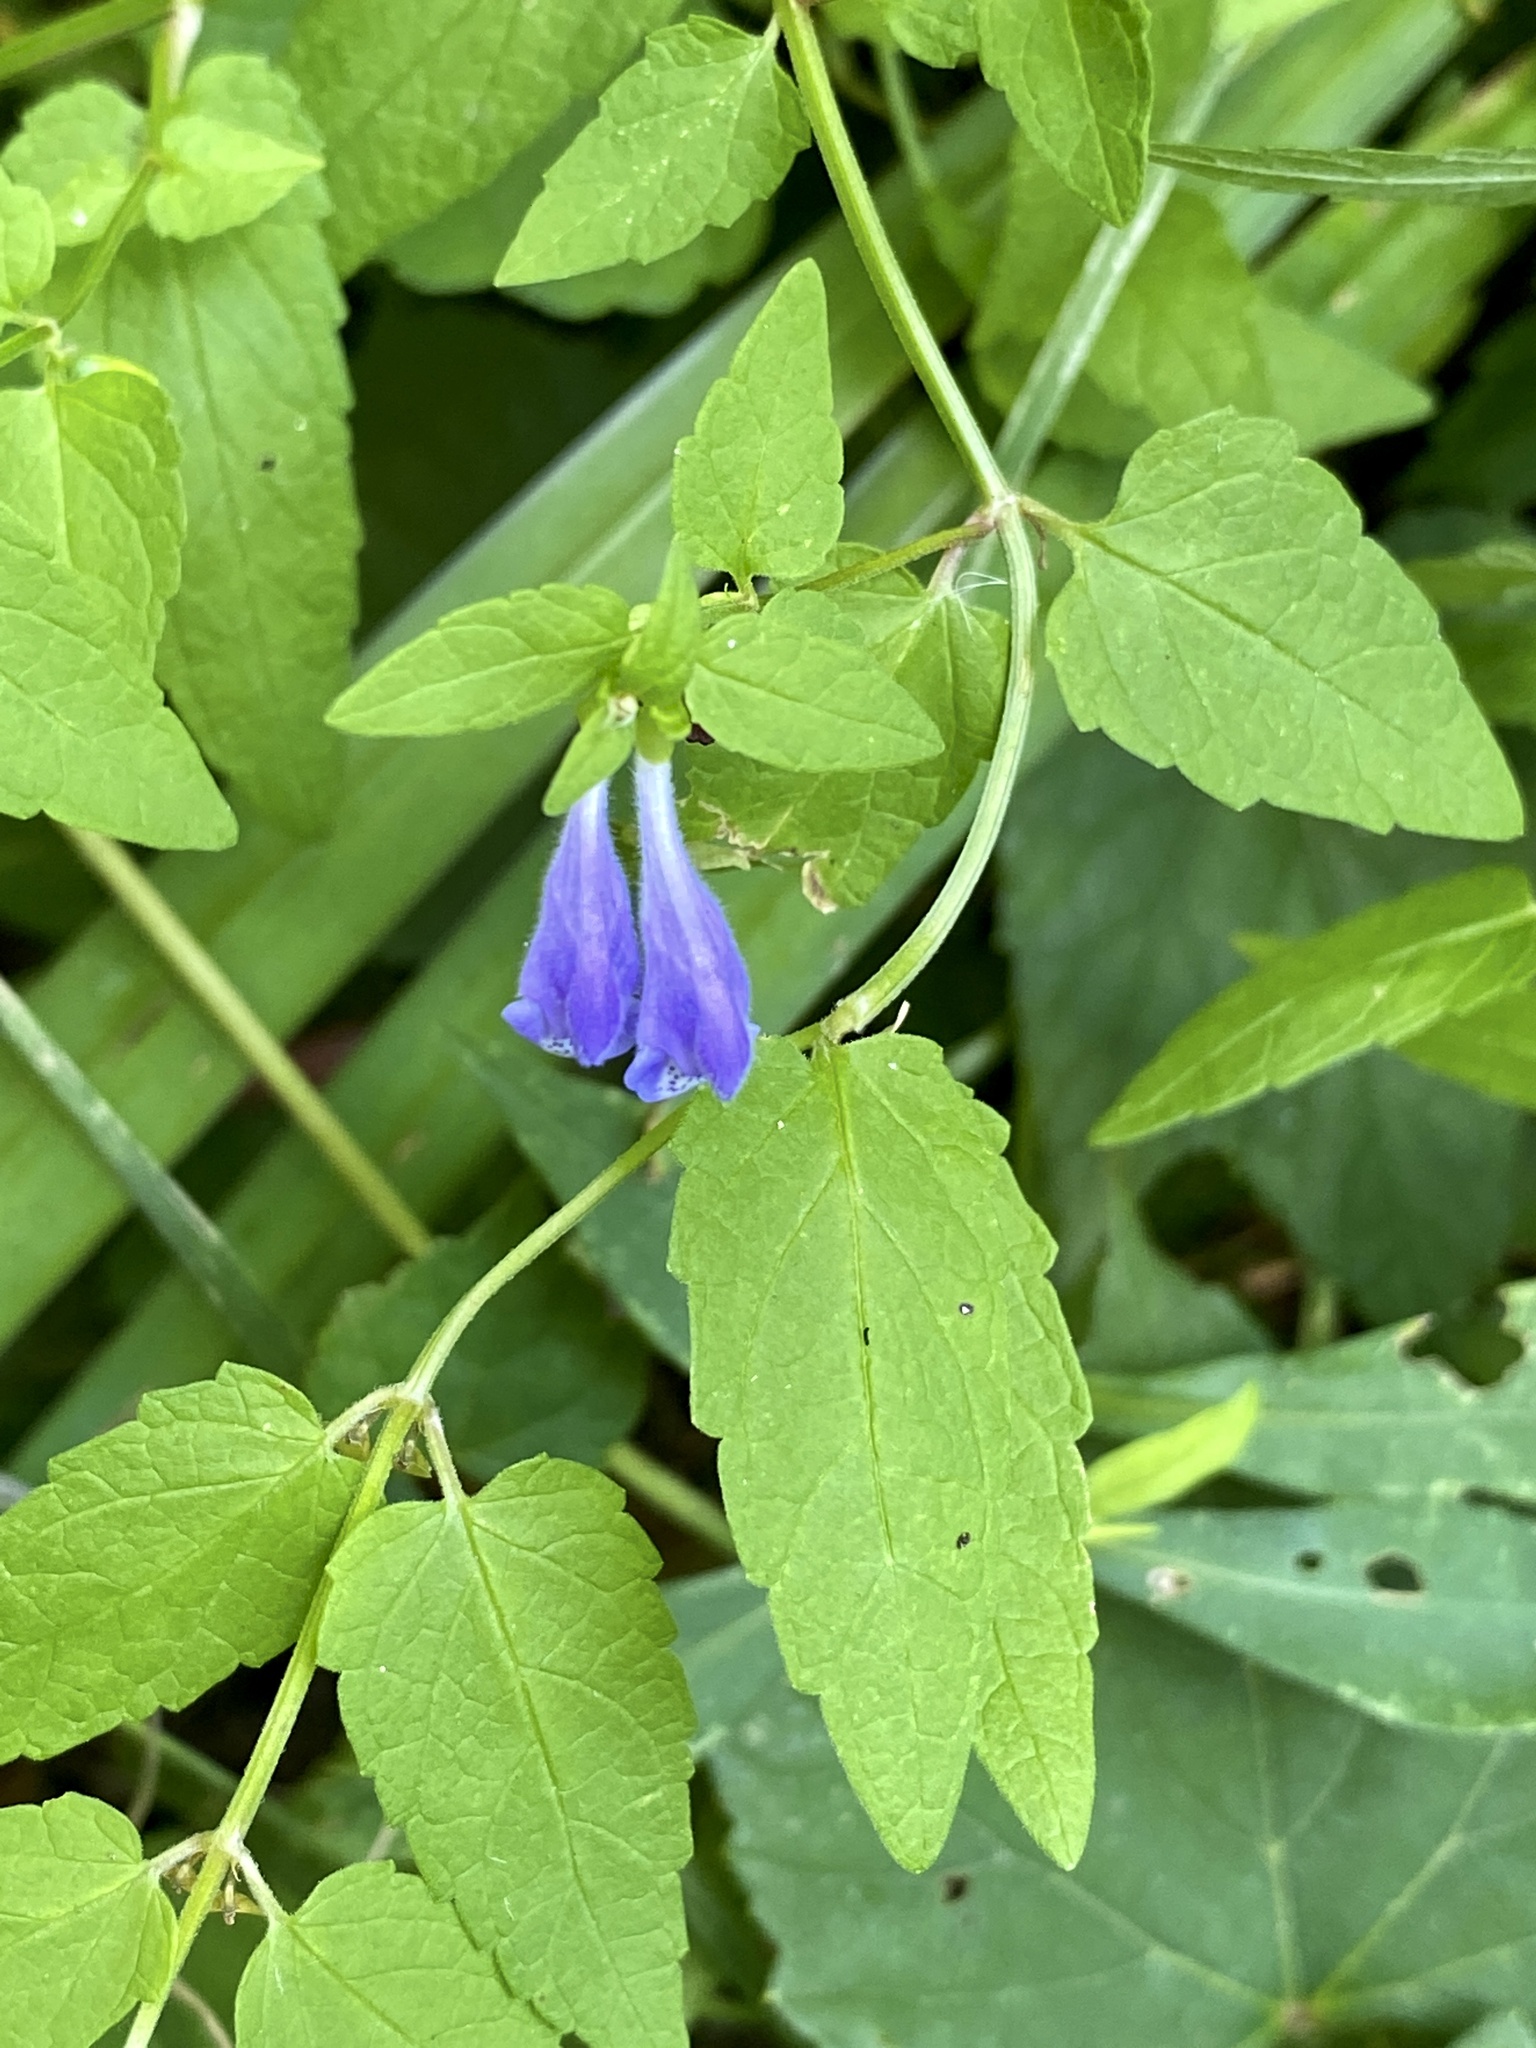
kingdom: Plantae
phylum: Tracheophyta
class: Magnoliopsida
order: Lamiales
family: Lamiaceae
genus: Scutellaria
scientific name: Scutellaria churchilliana
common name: Churchill's skullcap
